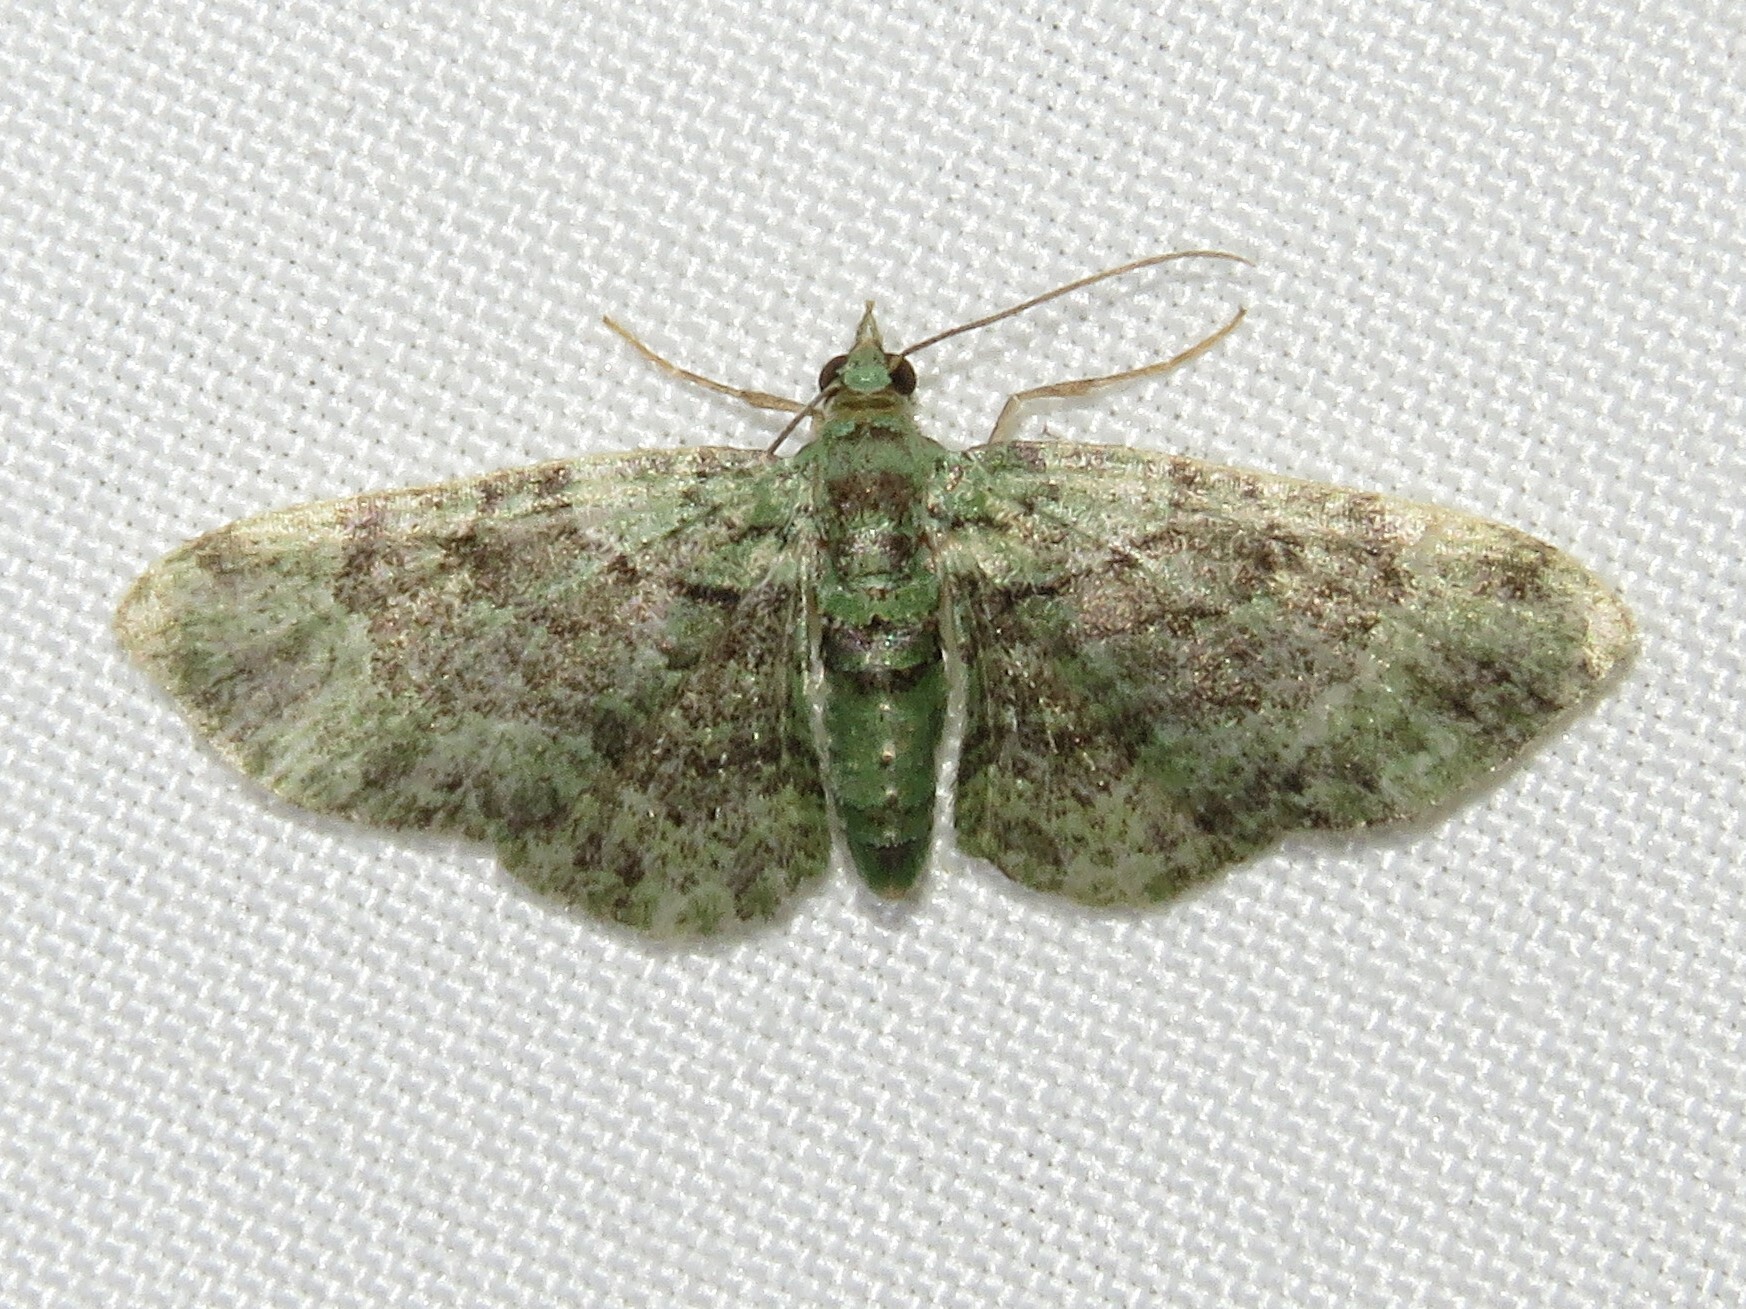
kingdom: Animalia
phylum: Arthropoda
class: Insecta
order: Lepidoptera
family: Geometridae
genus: Pasiphila
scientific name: Pasiphila rectangulata
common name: Green pug
